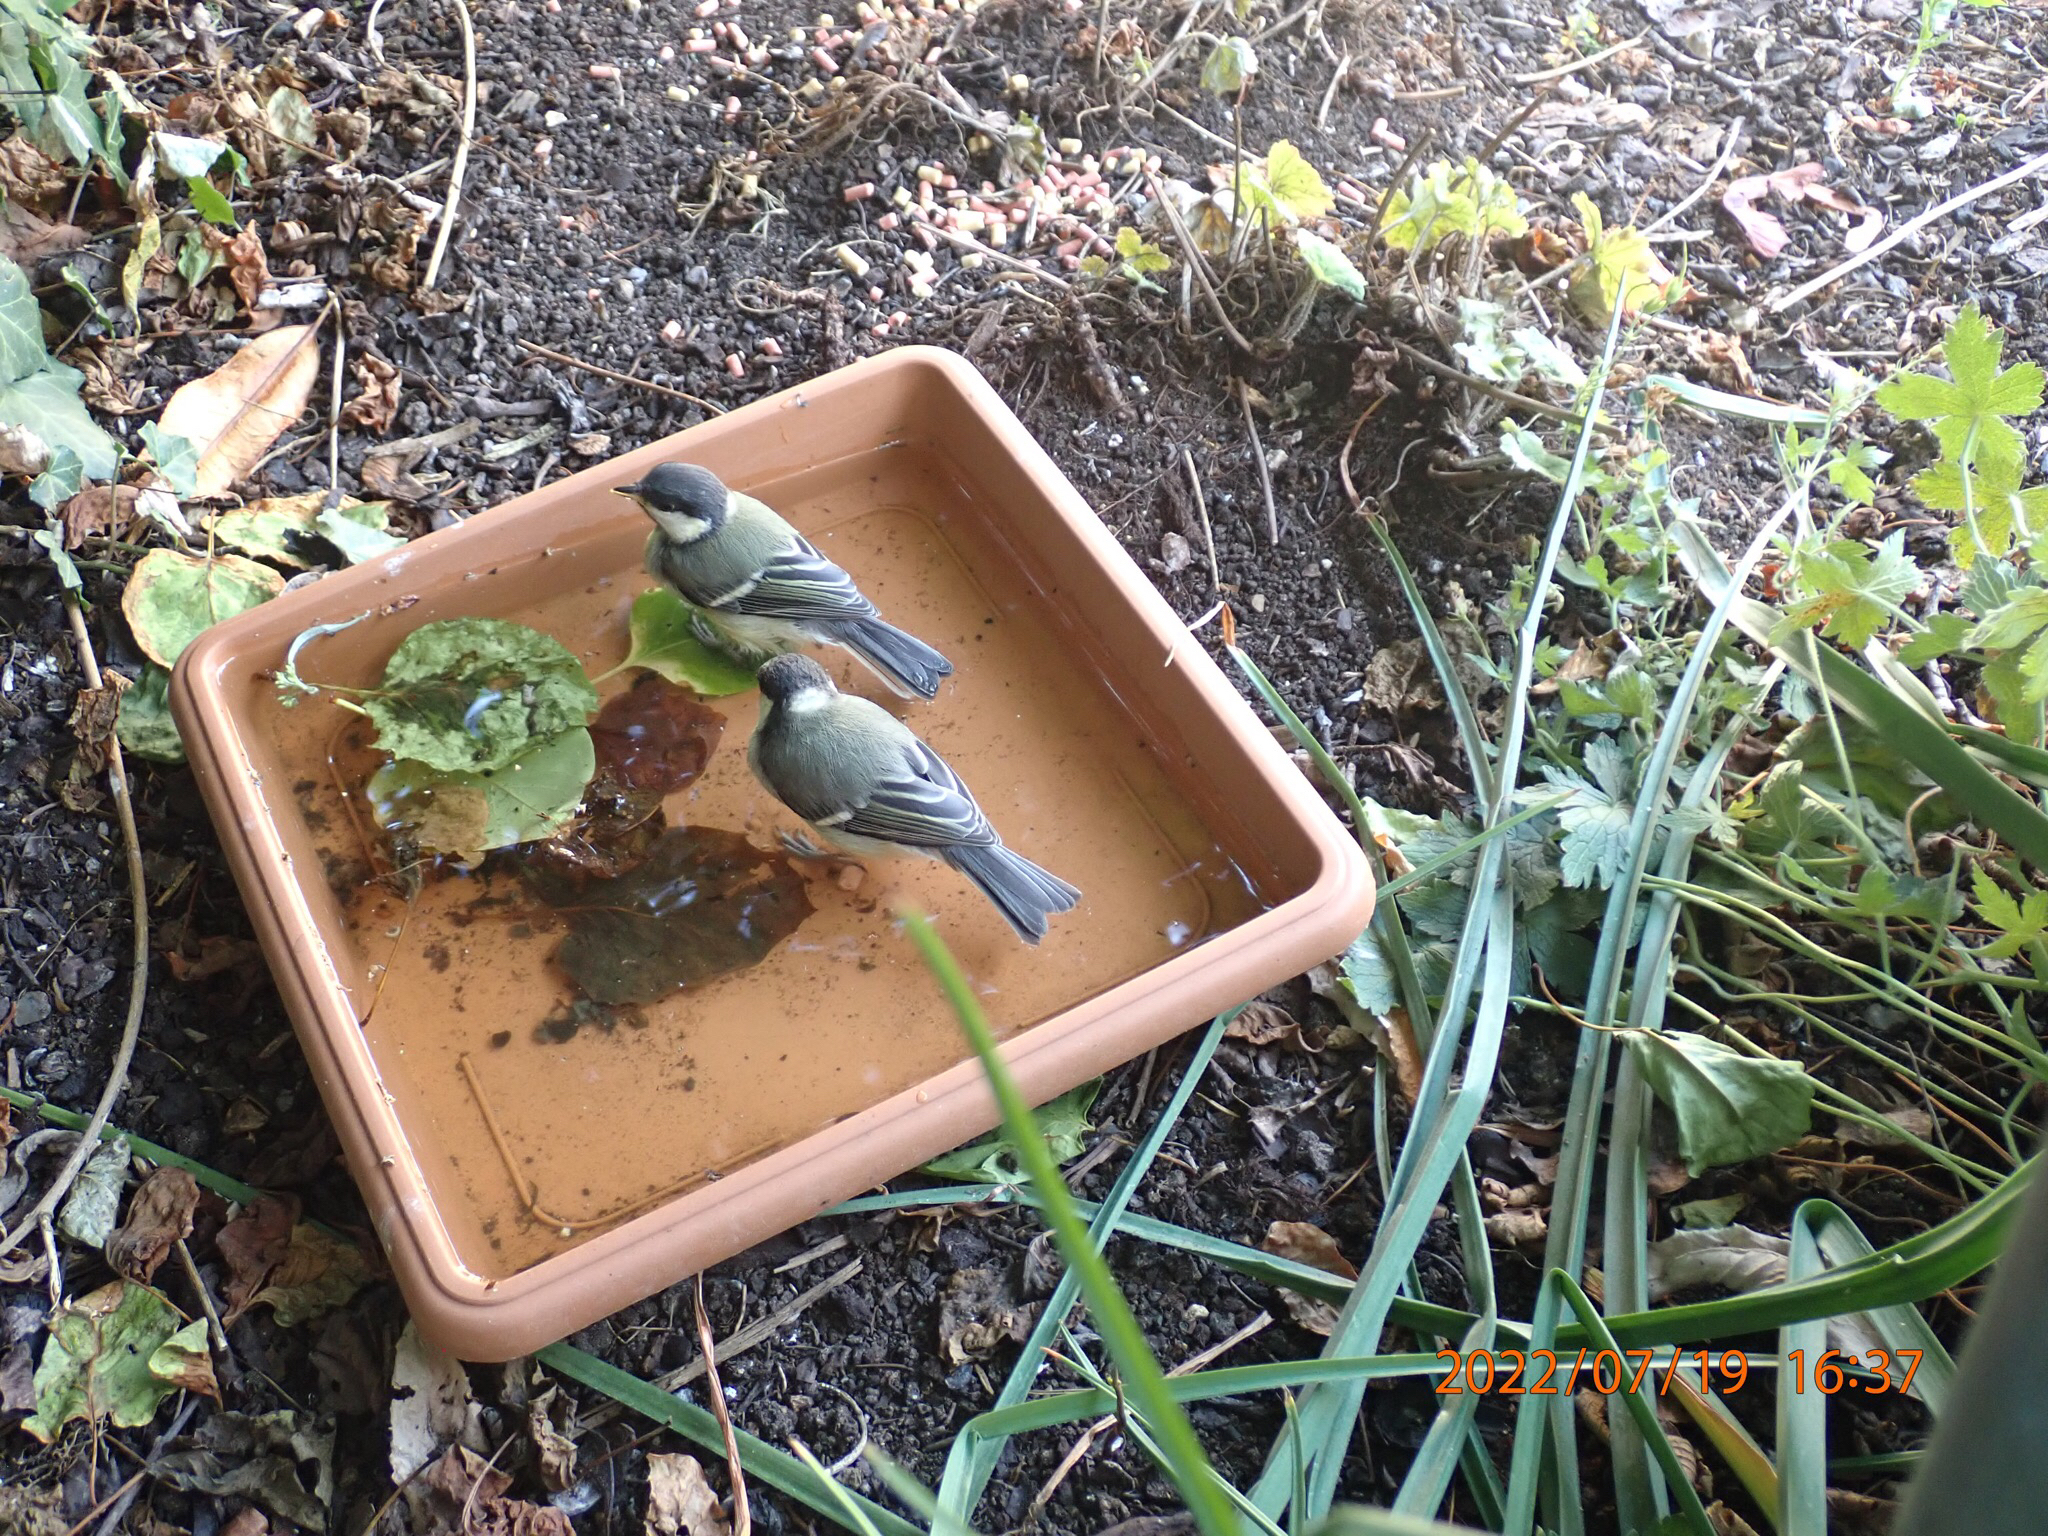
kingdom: Animalia
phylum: Chordata
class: Aves
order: Passeriformes
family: Paridae
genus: Parus
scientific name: Parus major
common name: Great tit
